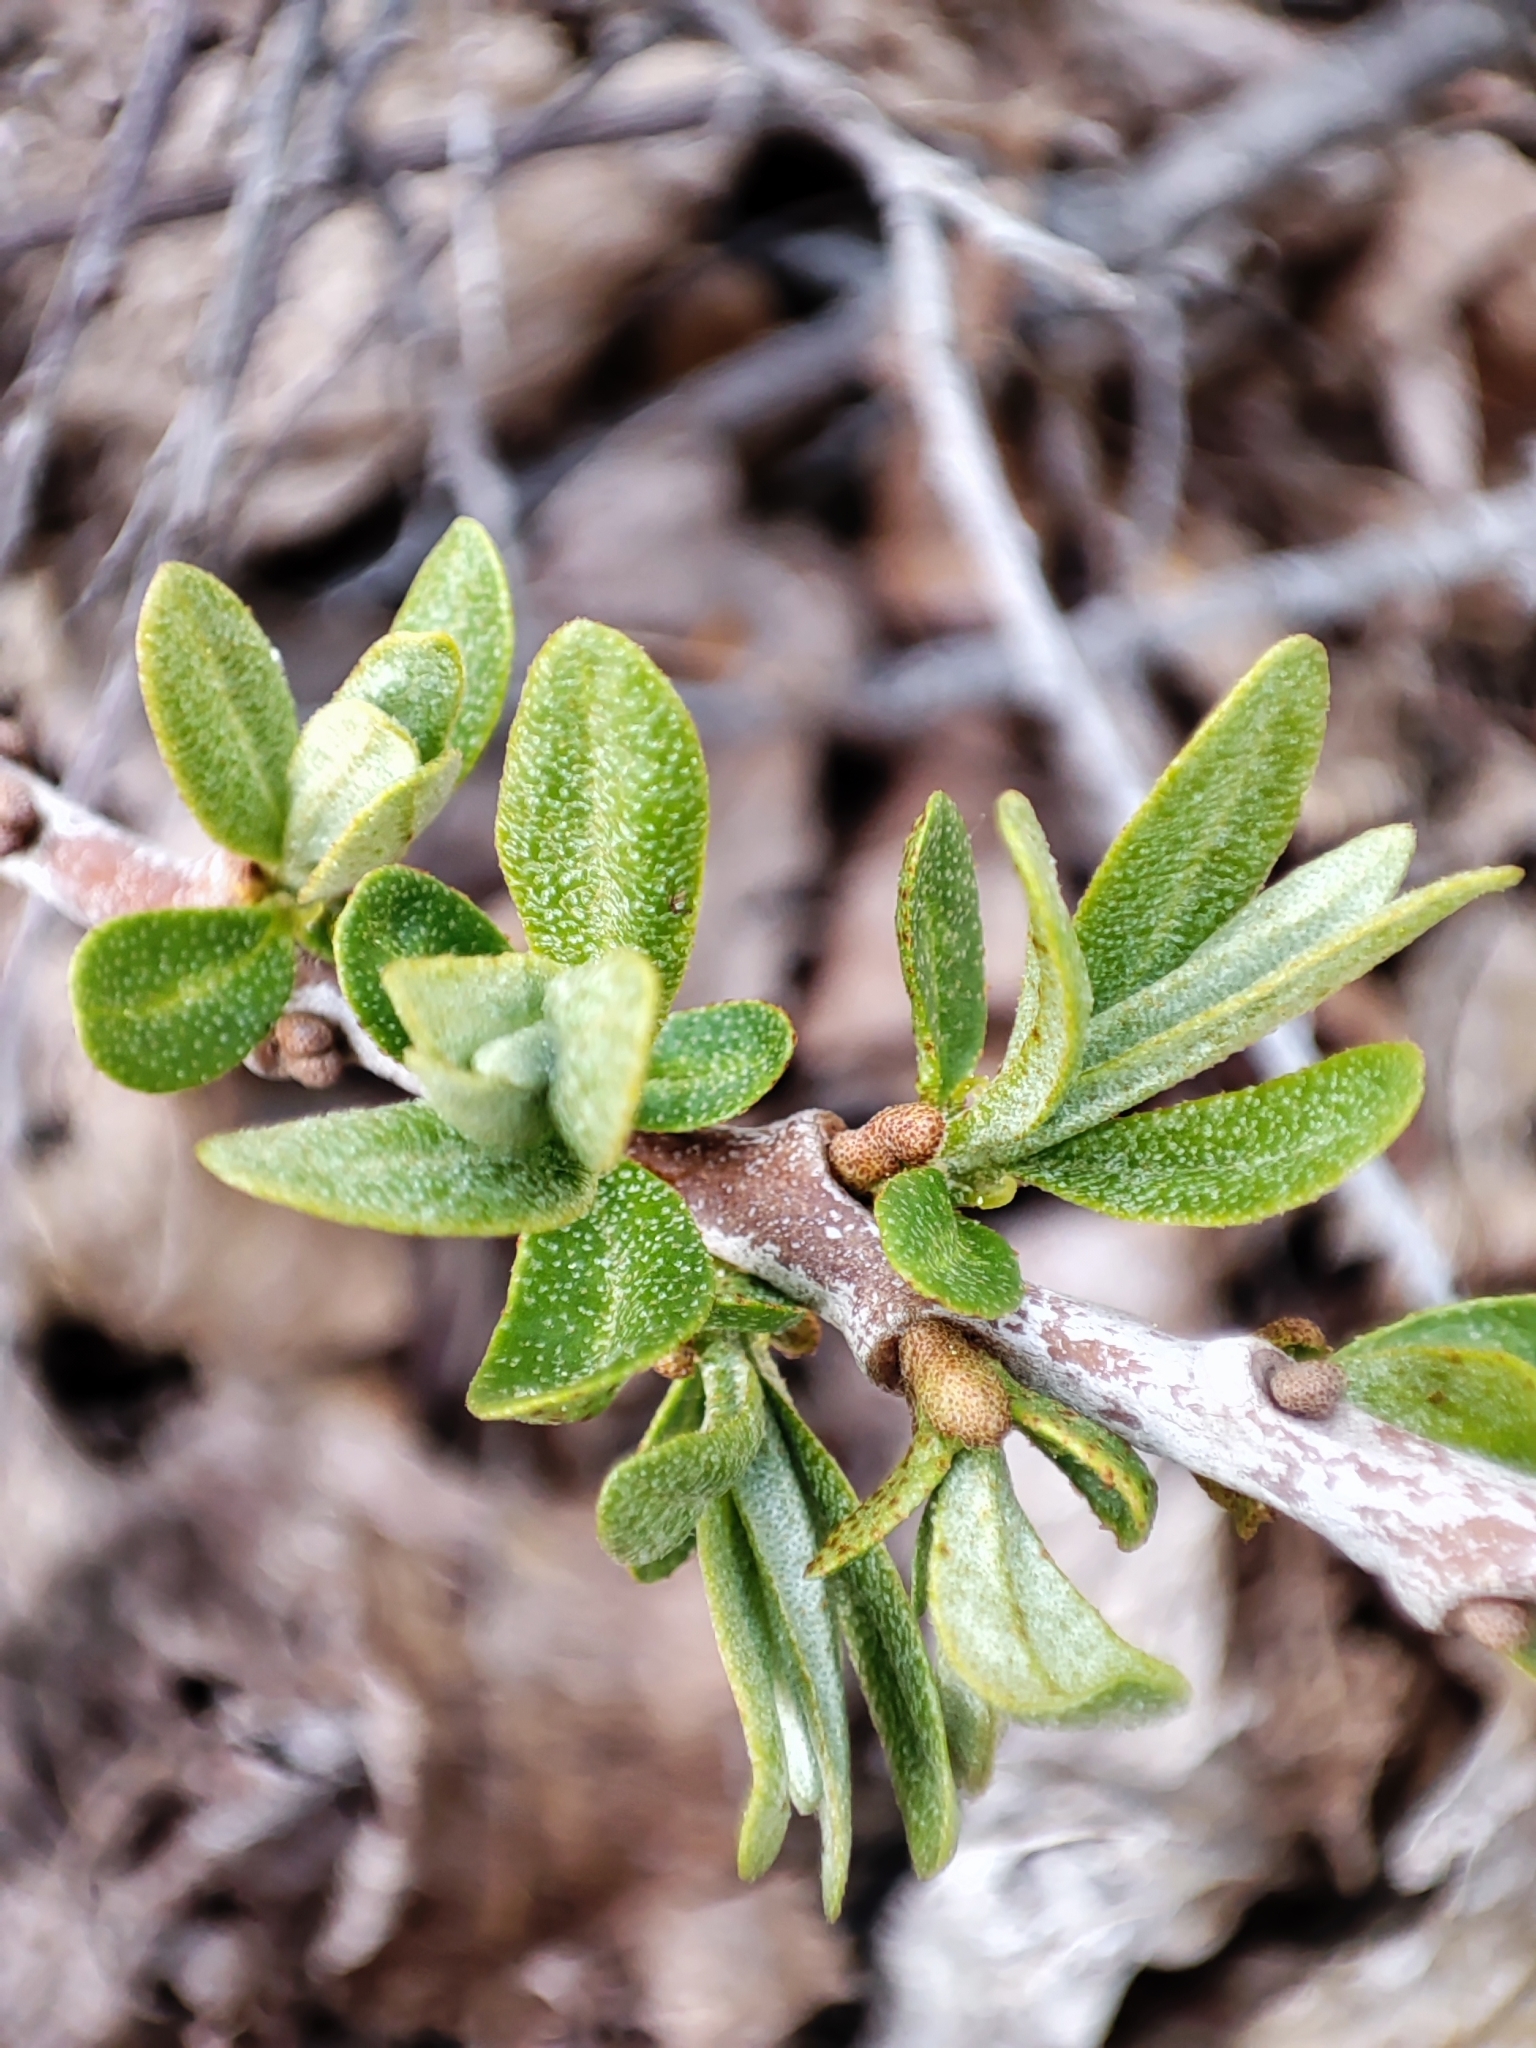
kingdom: Plantae
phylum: Tracheophyta
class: Magnoliopsida
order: Rosales
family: Elaeagnaceae
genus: Hippophae
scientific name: Hippophae rhamnoides
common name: Sea-buckthorn
